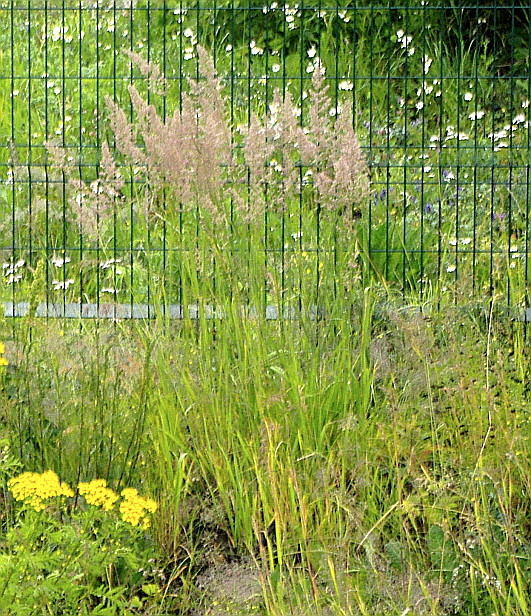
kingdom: Plantae
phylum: Tracheophyta
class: Liliopsida
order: Poales
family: Poaceae
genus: Calamagrostis
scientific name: Calamagrostis epigejos
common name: Wood small-reed
